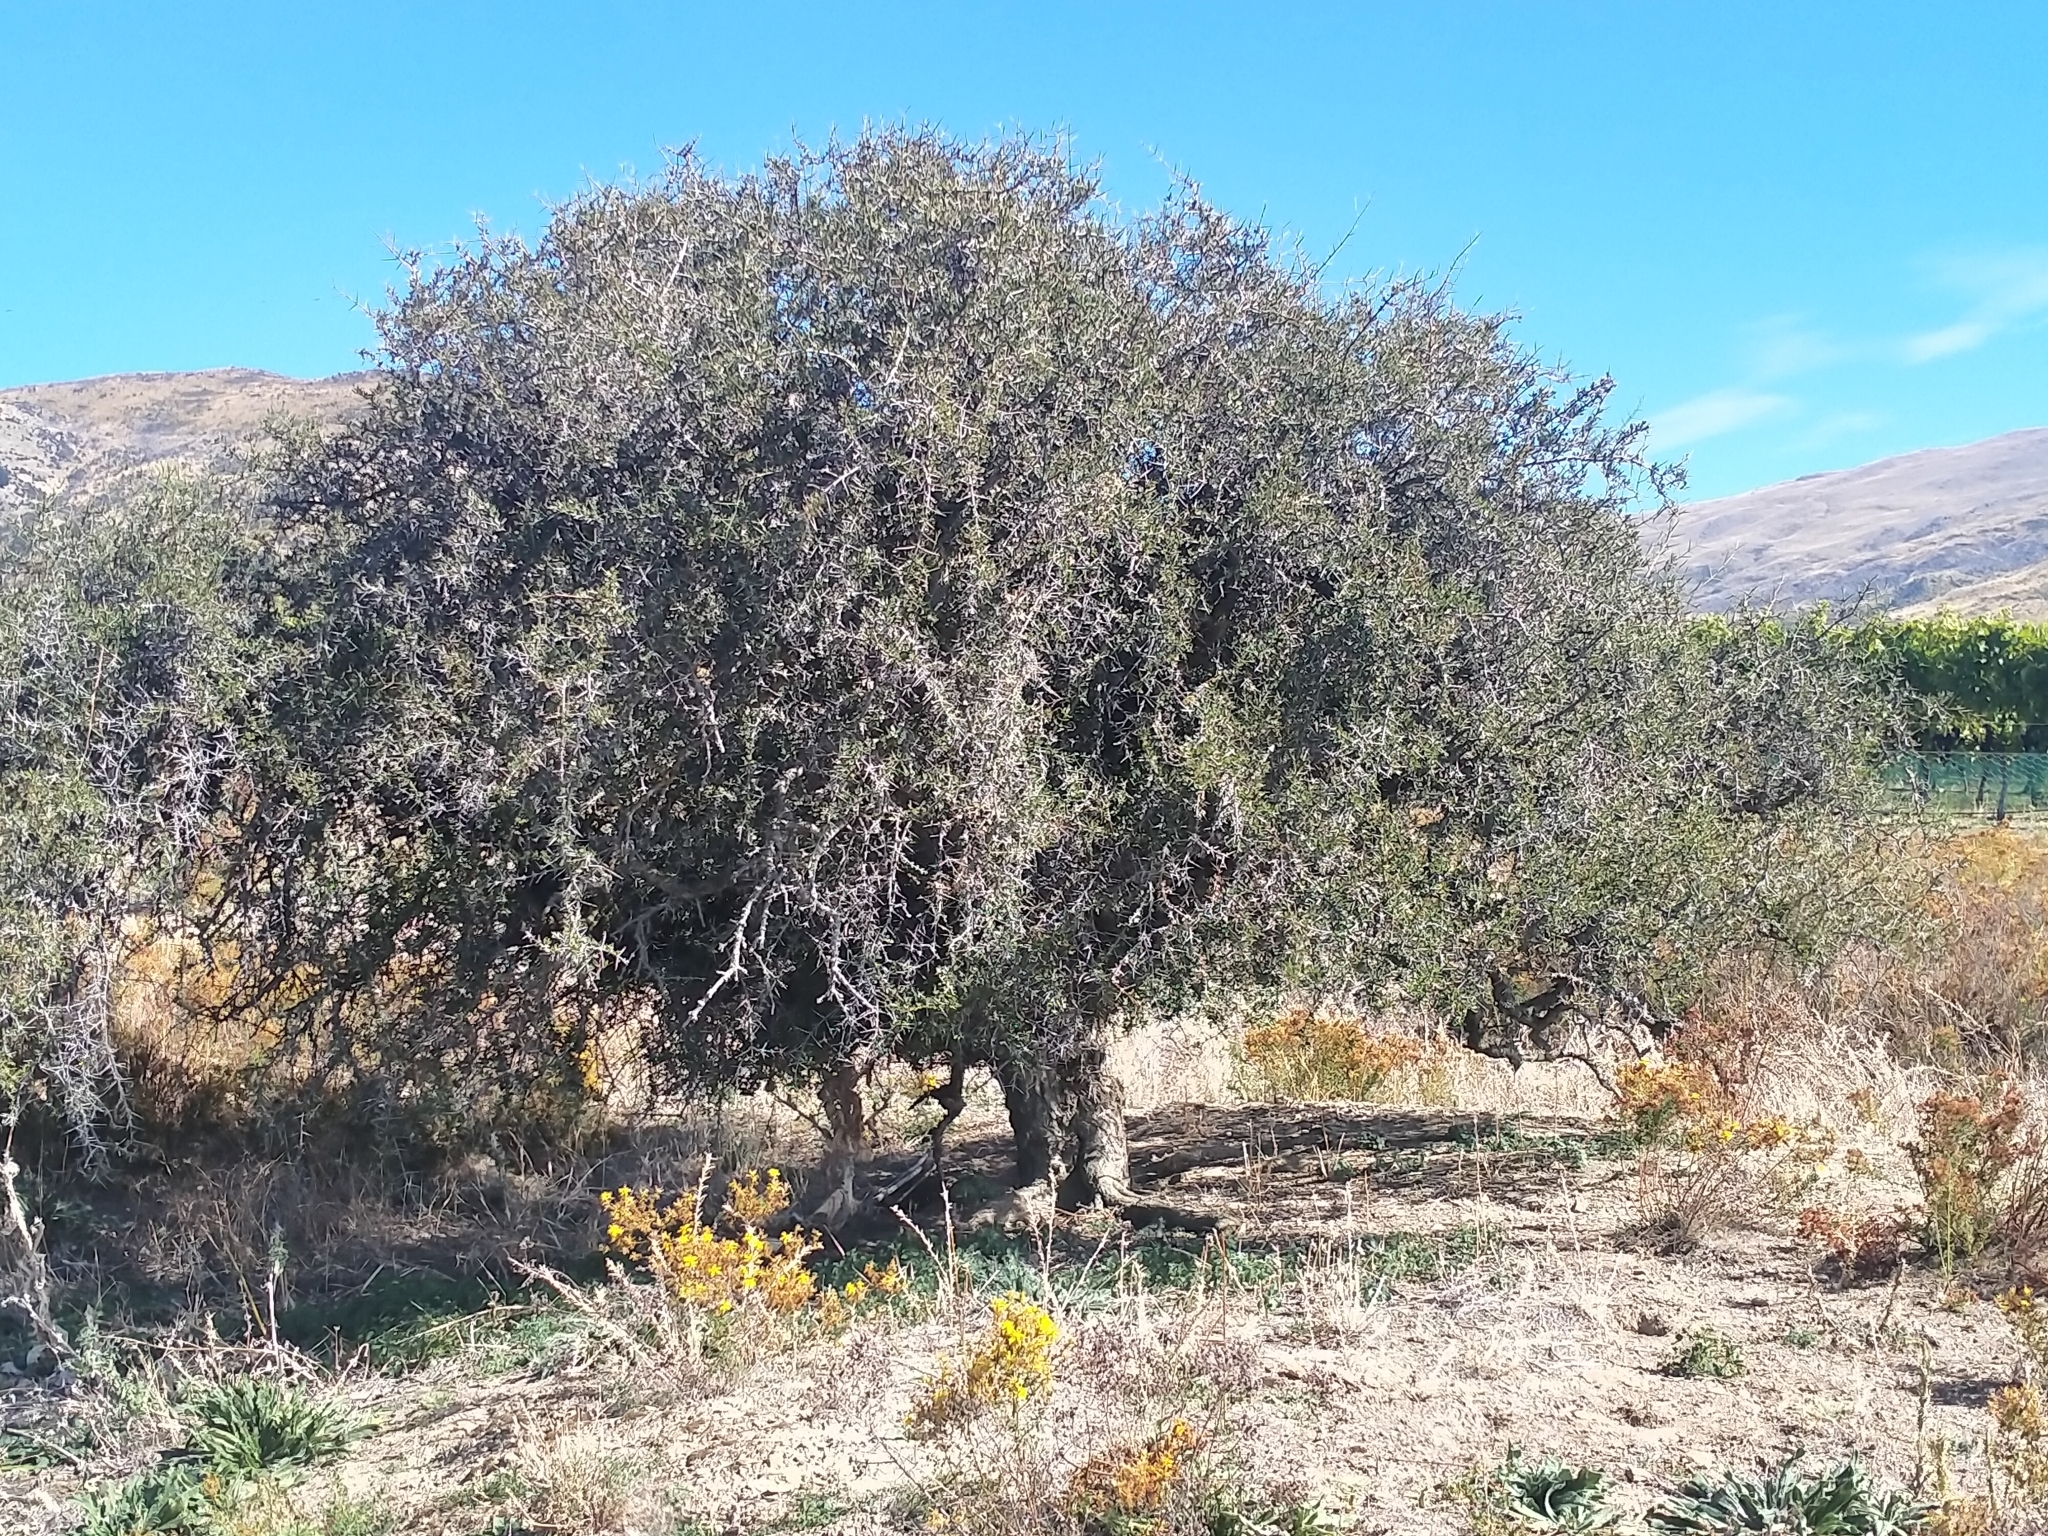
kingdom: Plantae
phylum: Tracheophyta
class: Magnoliopsida
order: Rosales
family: Rhamnaceae
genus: Discaria
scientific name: Discaria toumatou
